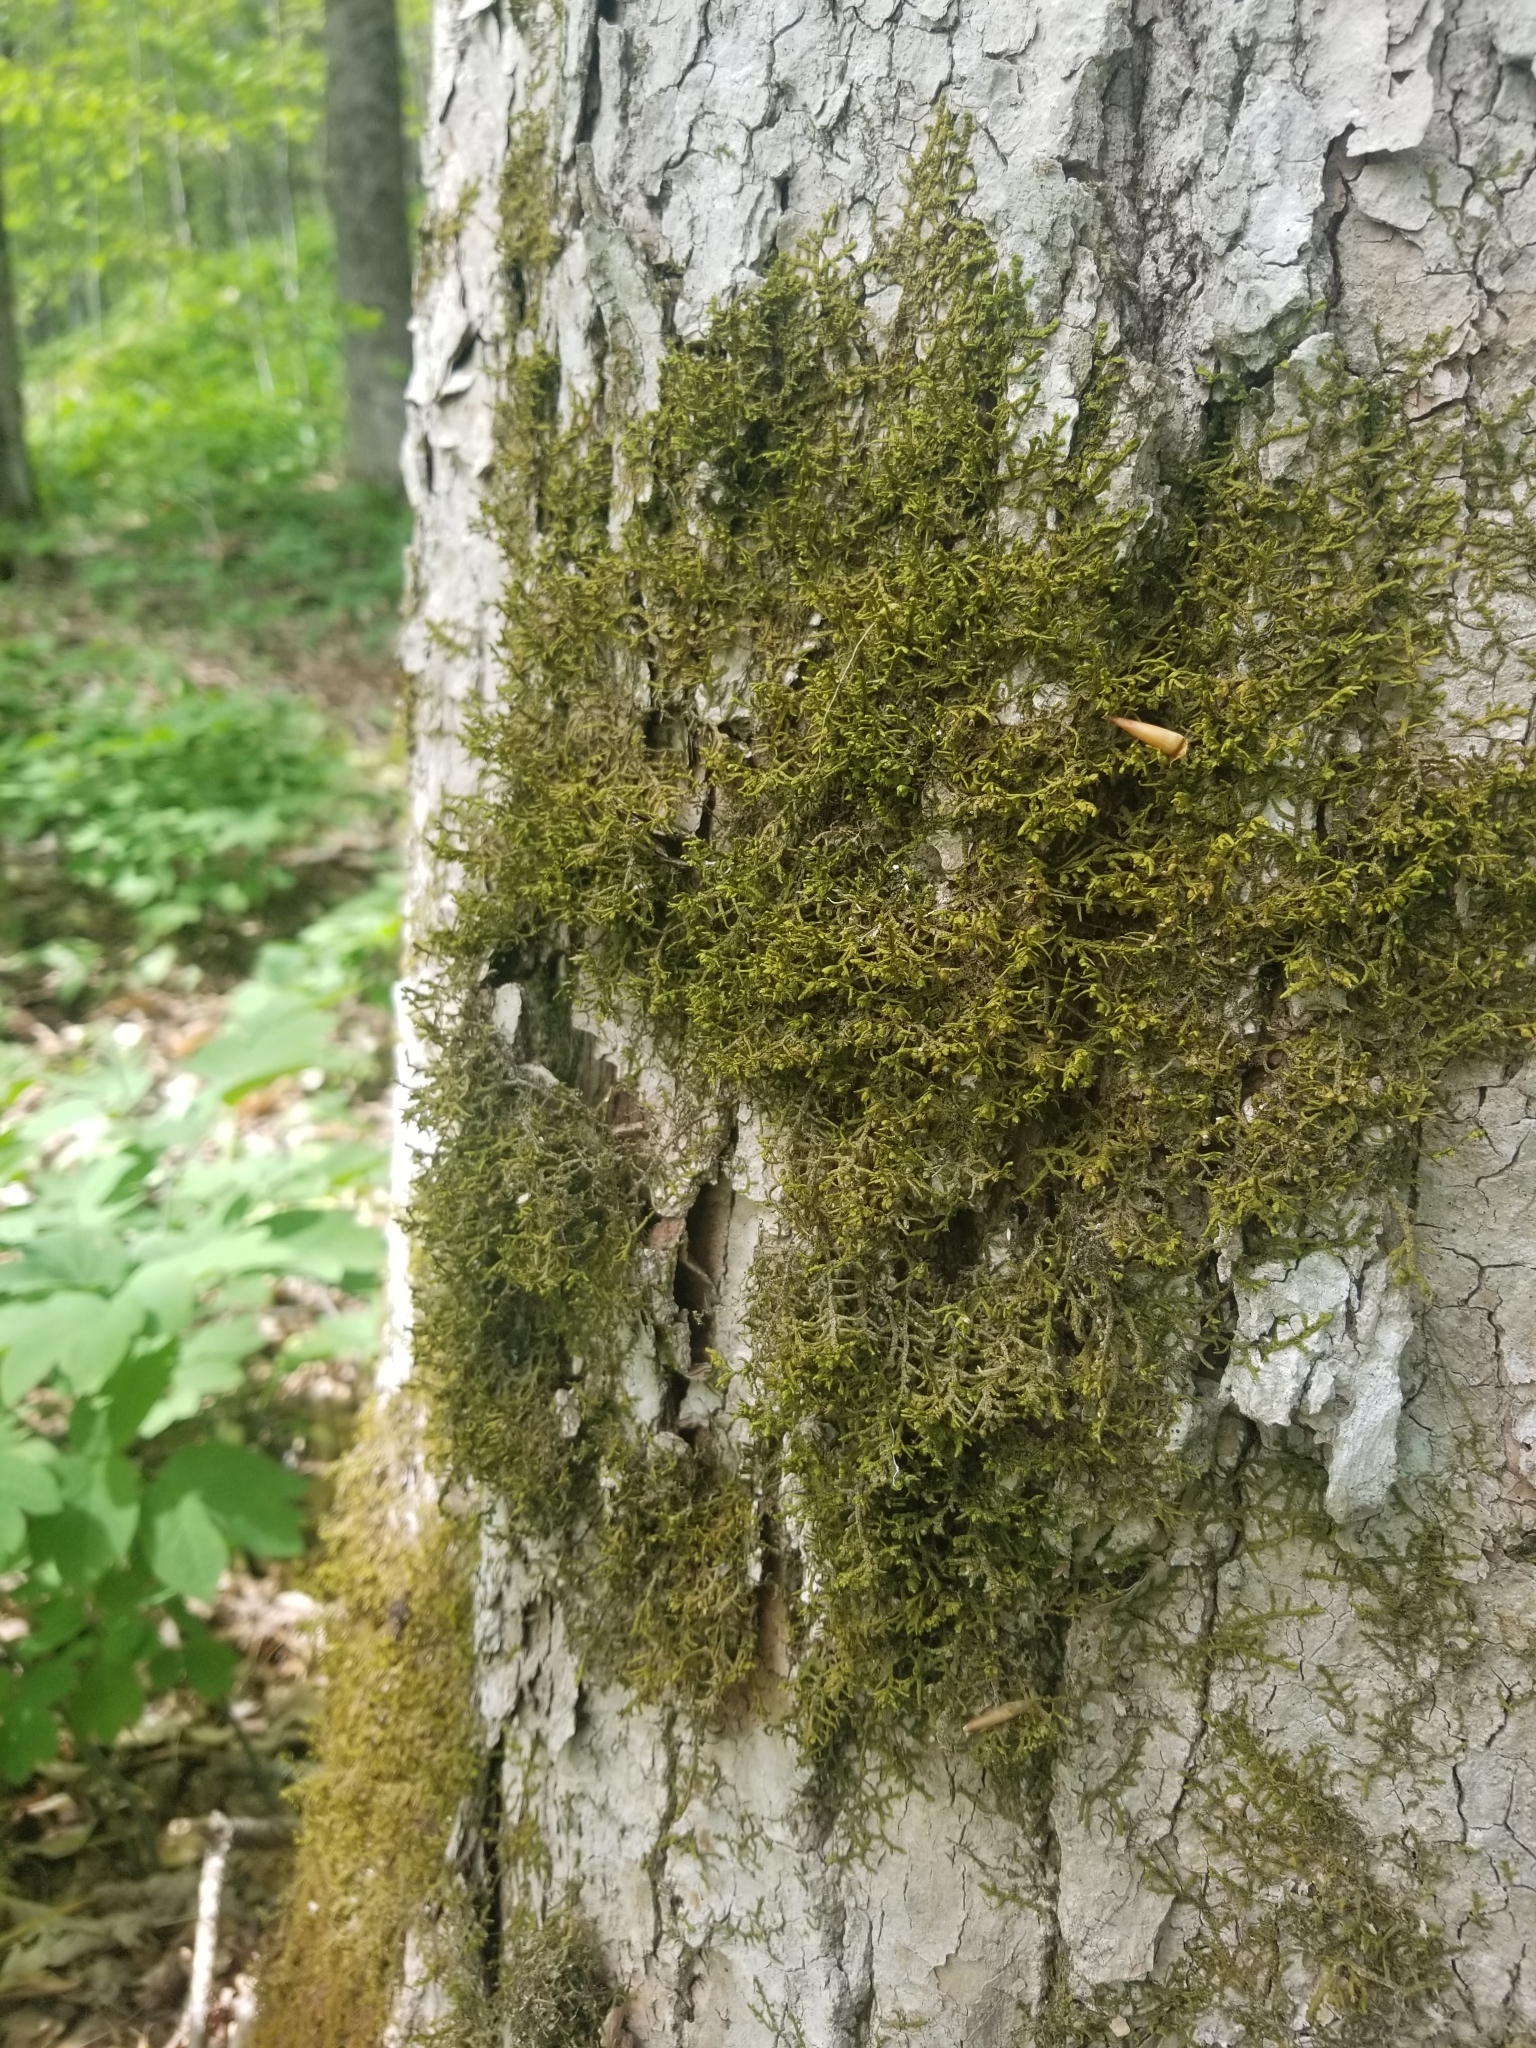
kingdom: Plantae
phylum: Marchantiophyta
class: Jungermanniopsida
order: Porellales
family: Porellaceae
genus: Porella
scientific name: Porella platyphylla
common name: Wall scalewort
